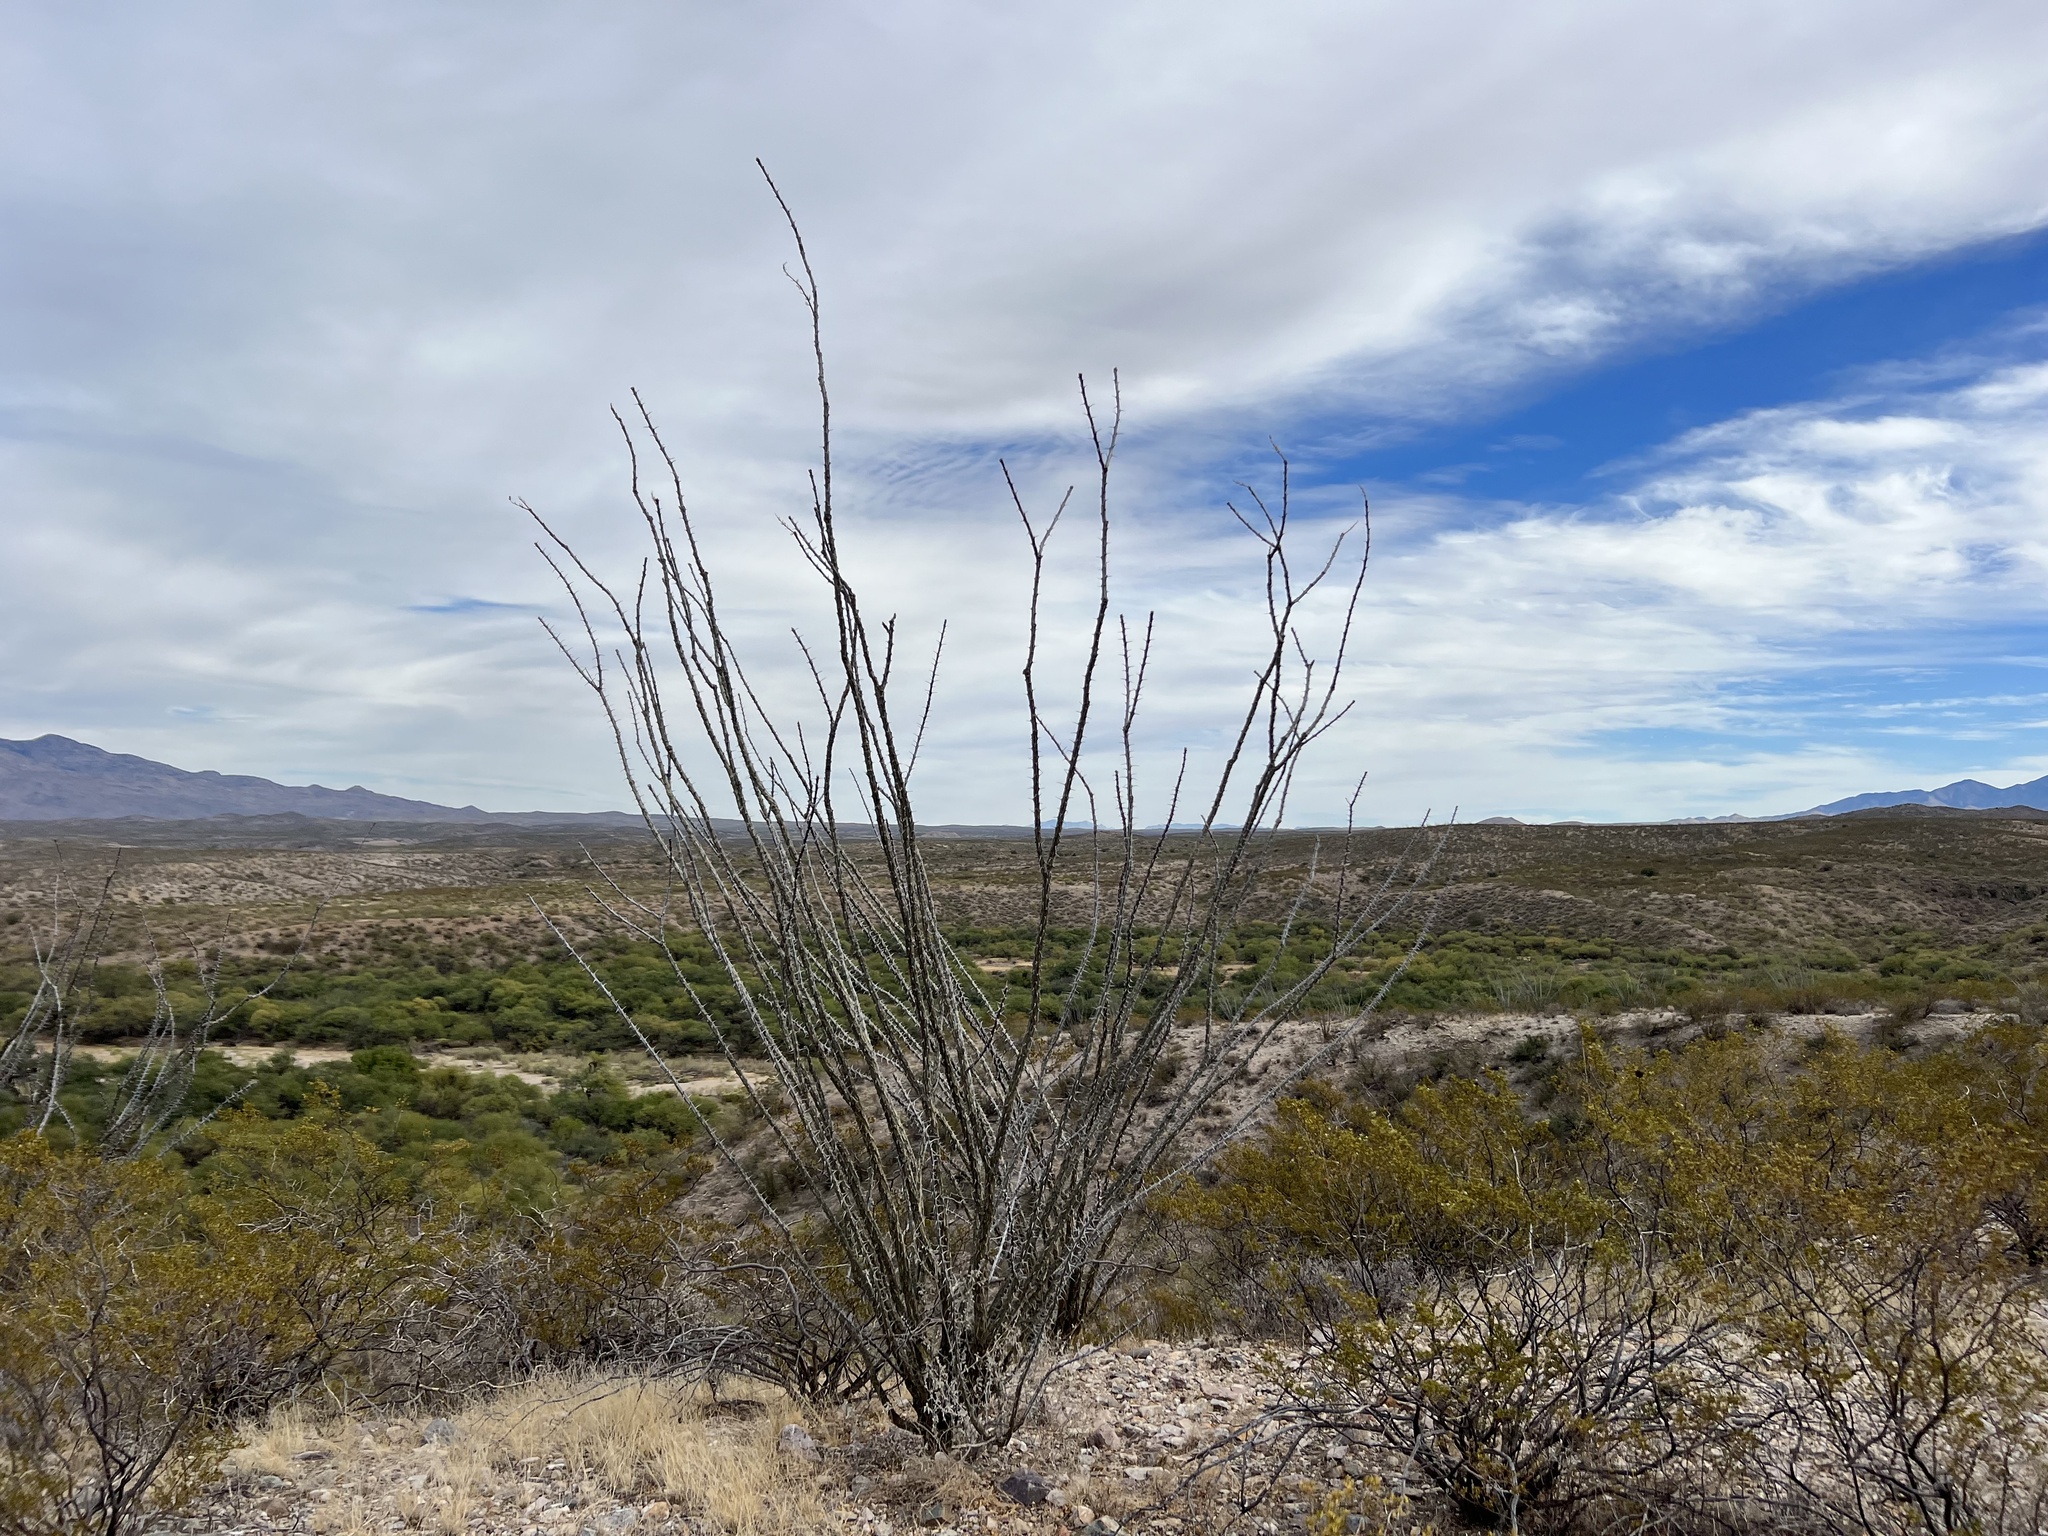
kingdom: Plantae
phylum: Tracheophyta
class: Magnoliopsida
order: Ericales
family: Fouquieriaceae
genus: Fouquieria
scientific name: Fouquieria splendens
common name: Vine-cactus
